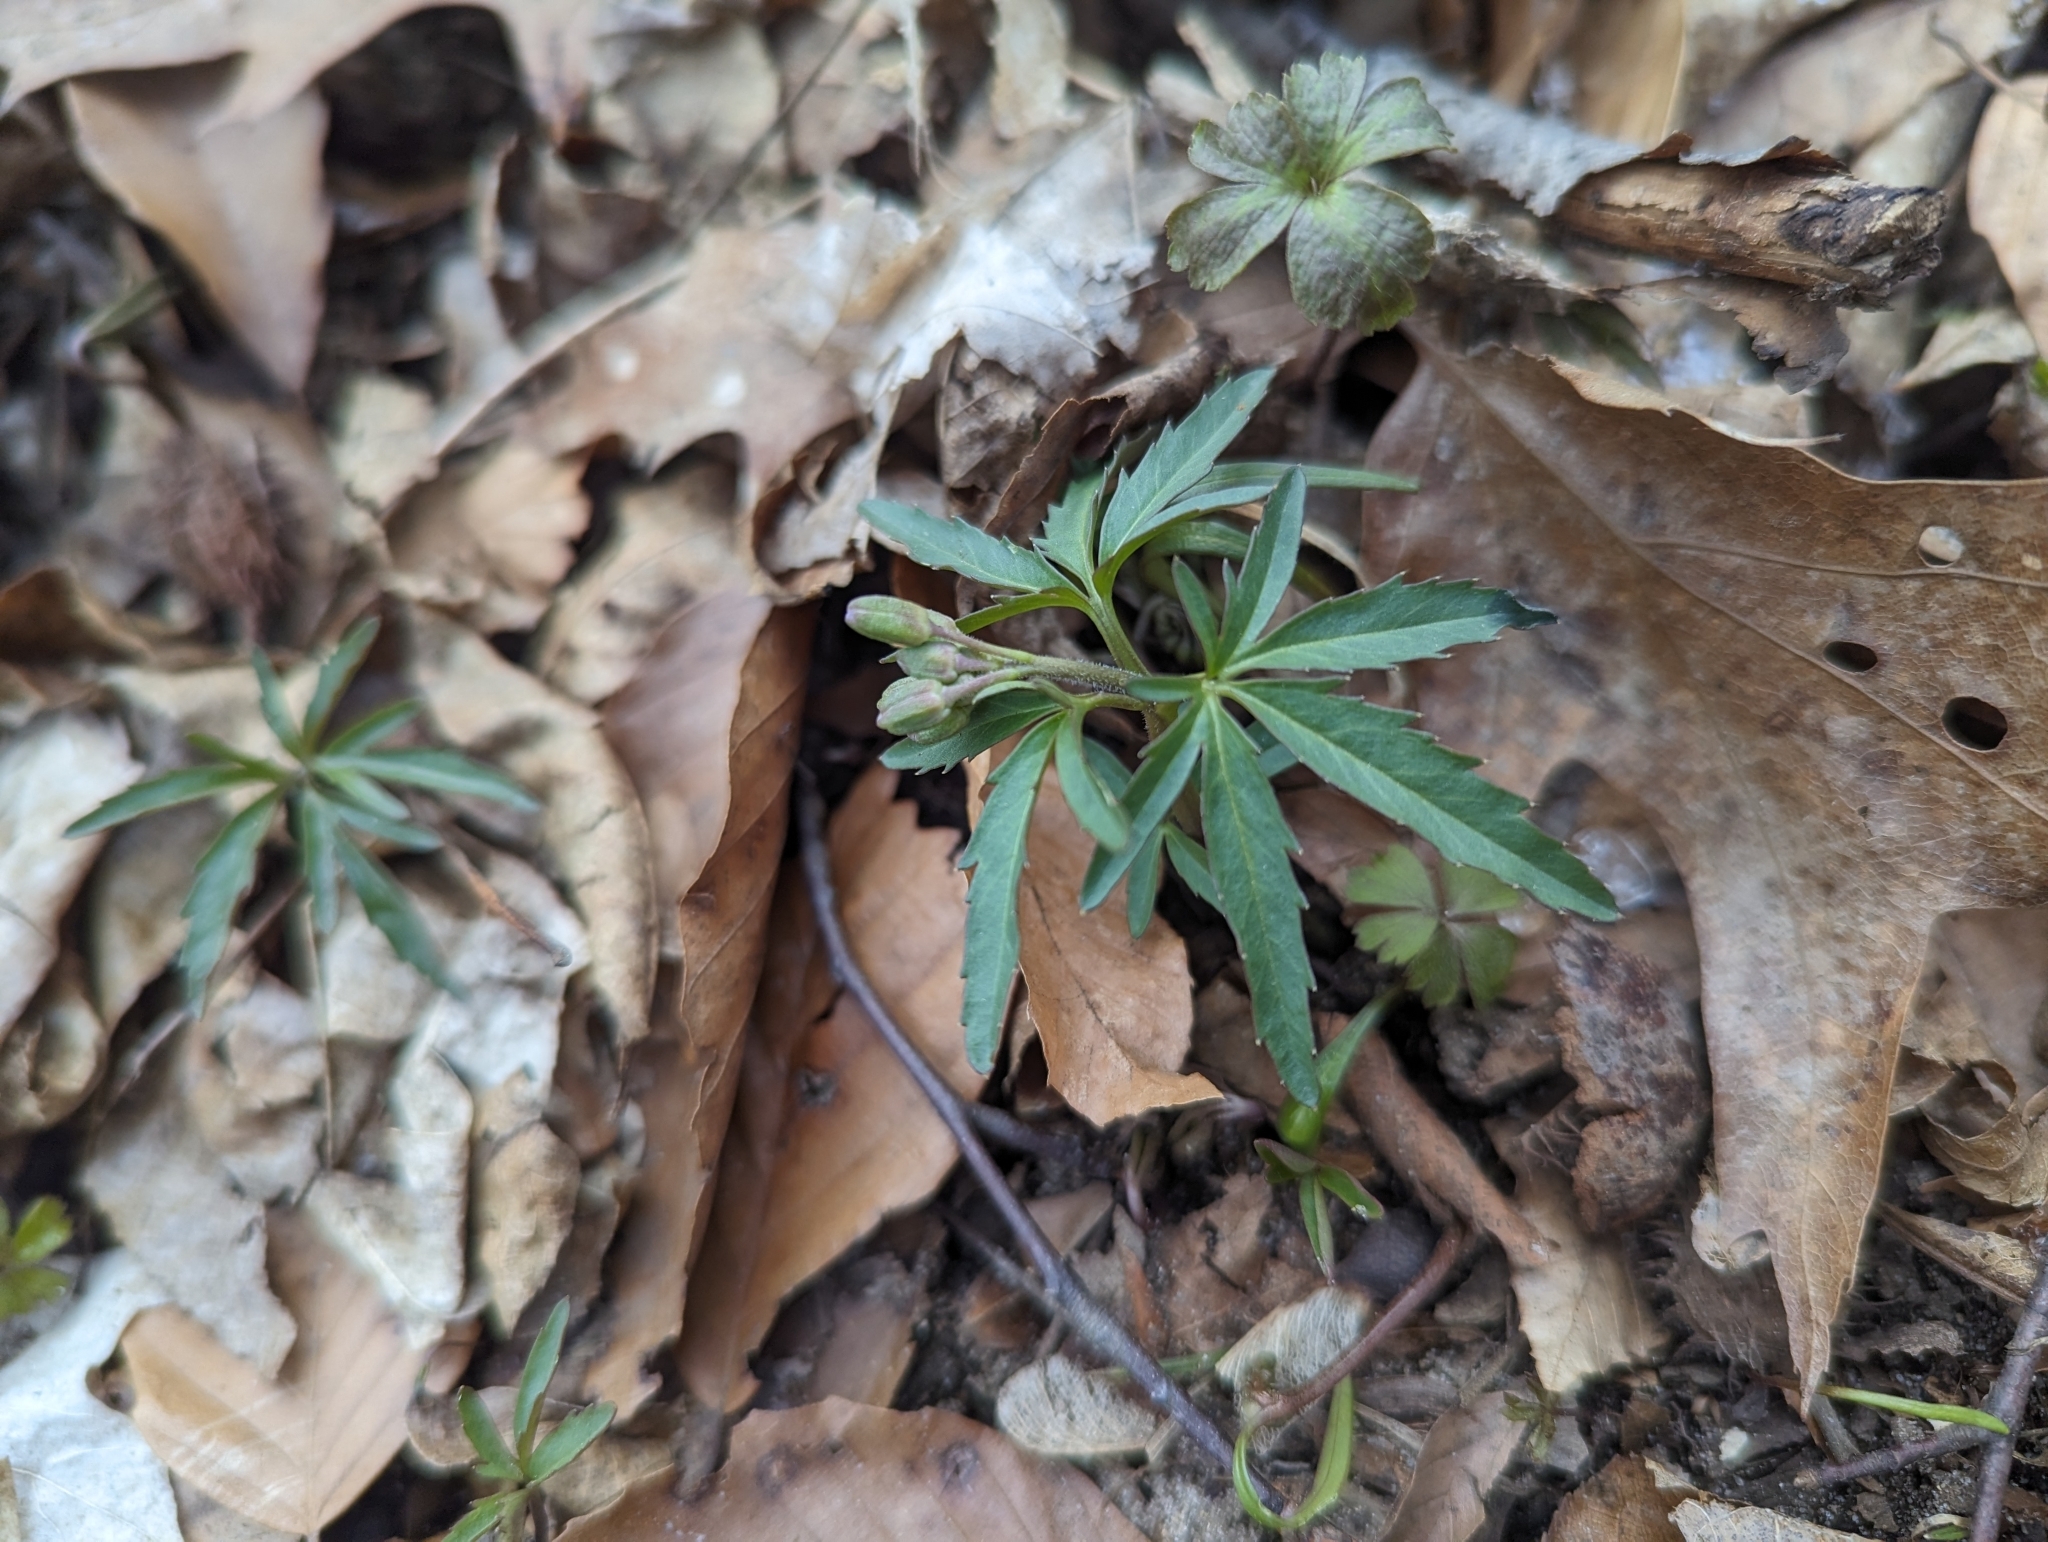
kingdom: Plantae
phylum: Tracheophyta
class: Magnoliopsida
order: Brassicales
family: Brassicaceae
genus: Cardamine
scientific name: Cardamine concatenata
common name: Cut-leaf toothcup
